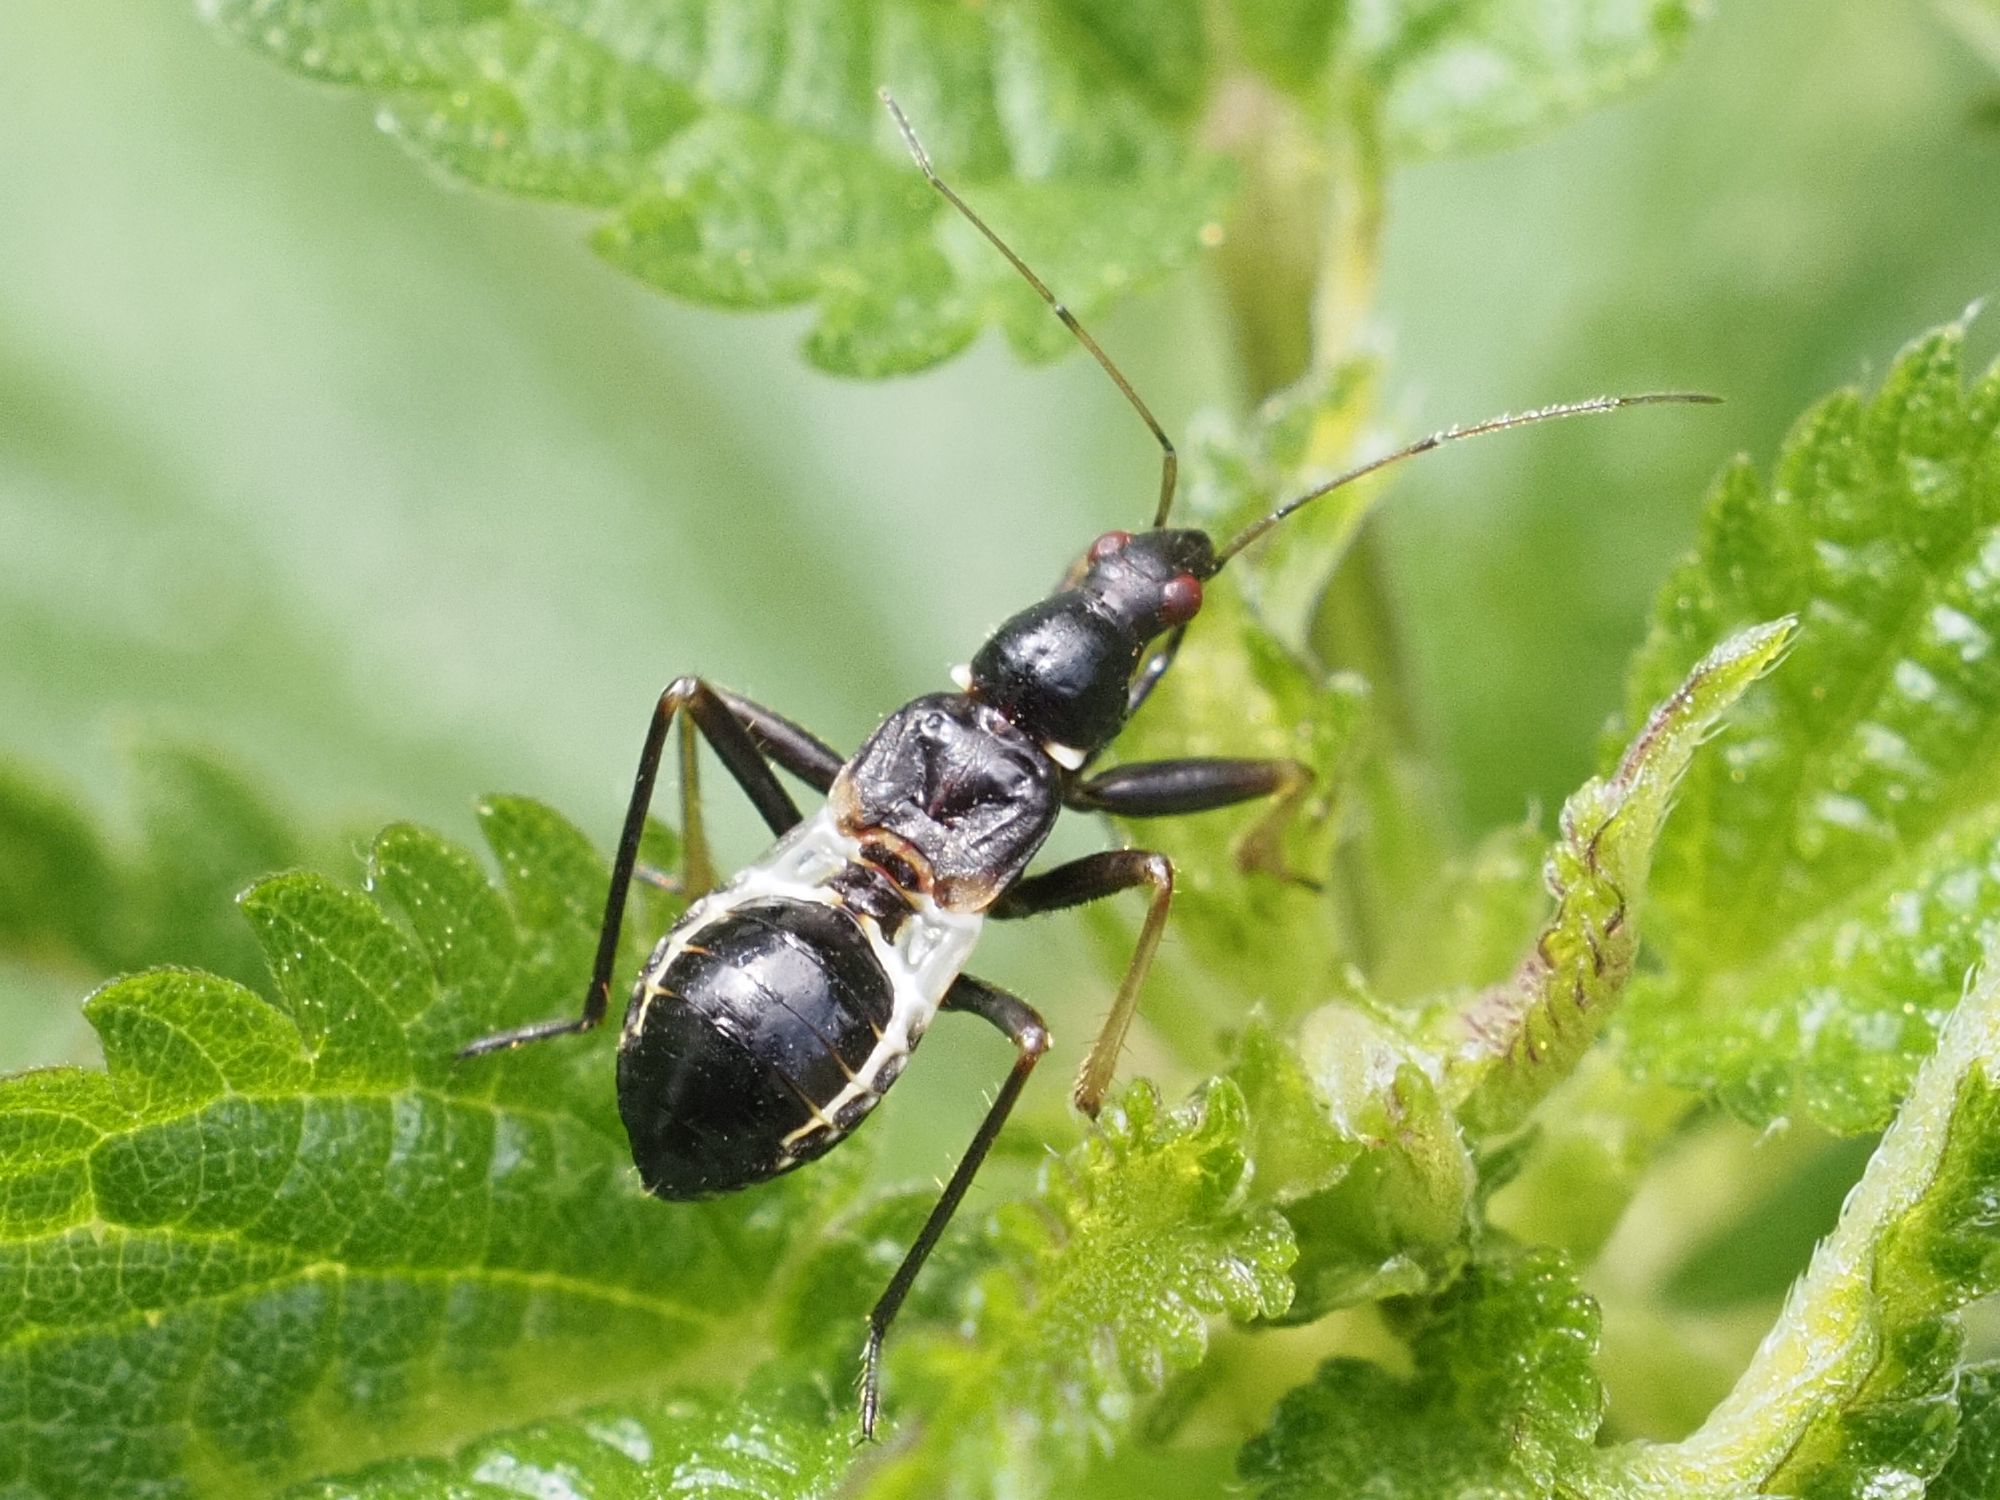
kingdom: Animalia
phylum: Arthropoda
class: Insecta
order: Hemiptera
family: Nabidae
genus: Himacerus
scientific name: Himacerus mirmicoides
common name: Ant damsel bug
